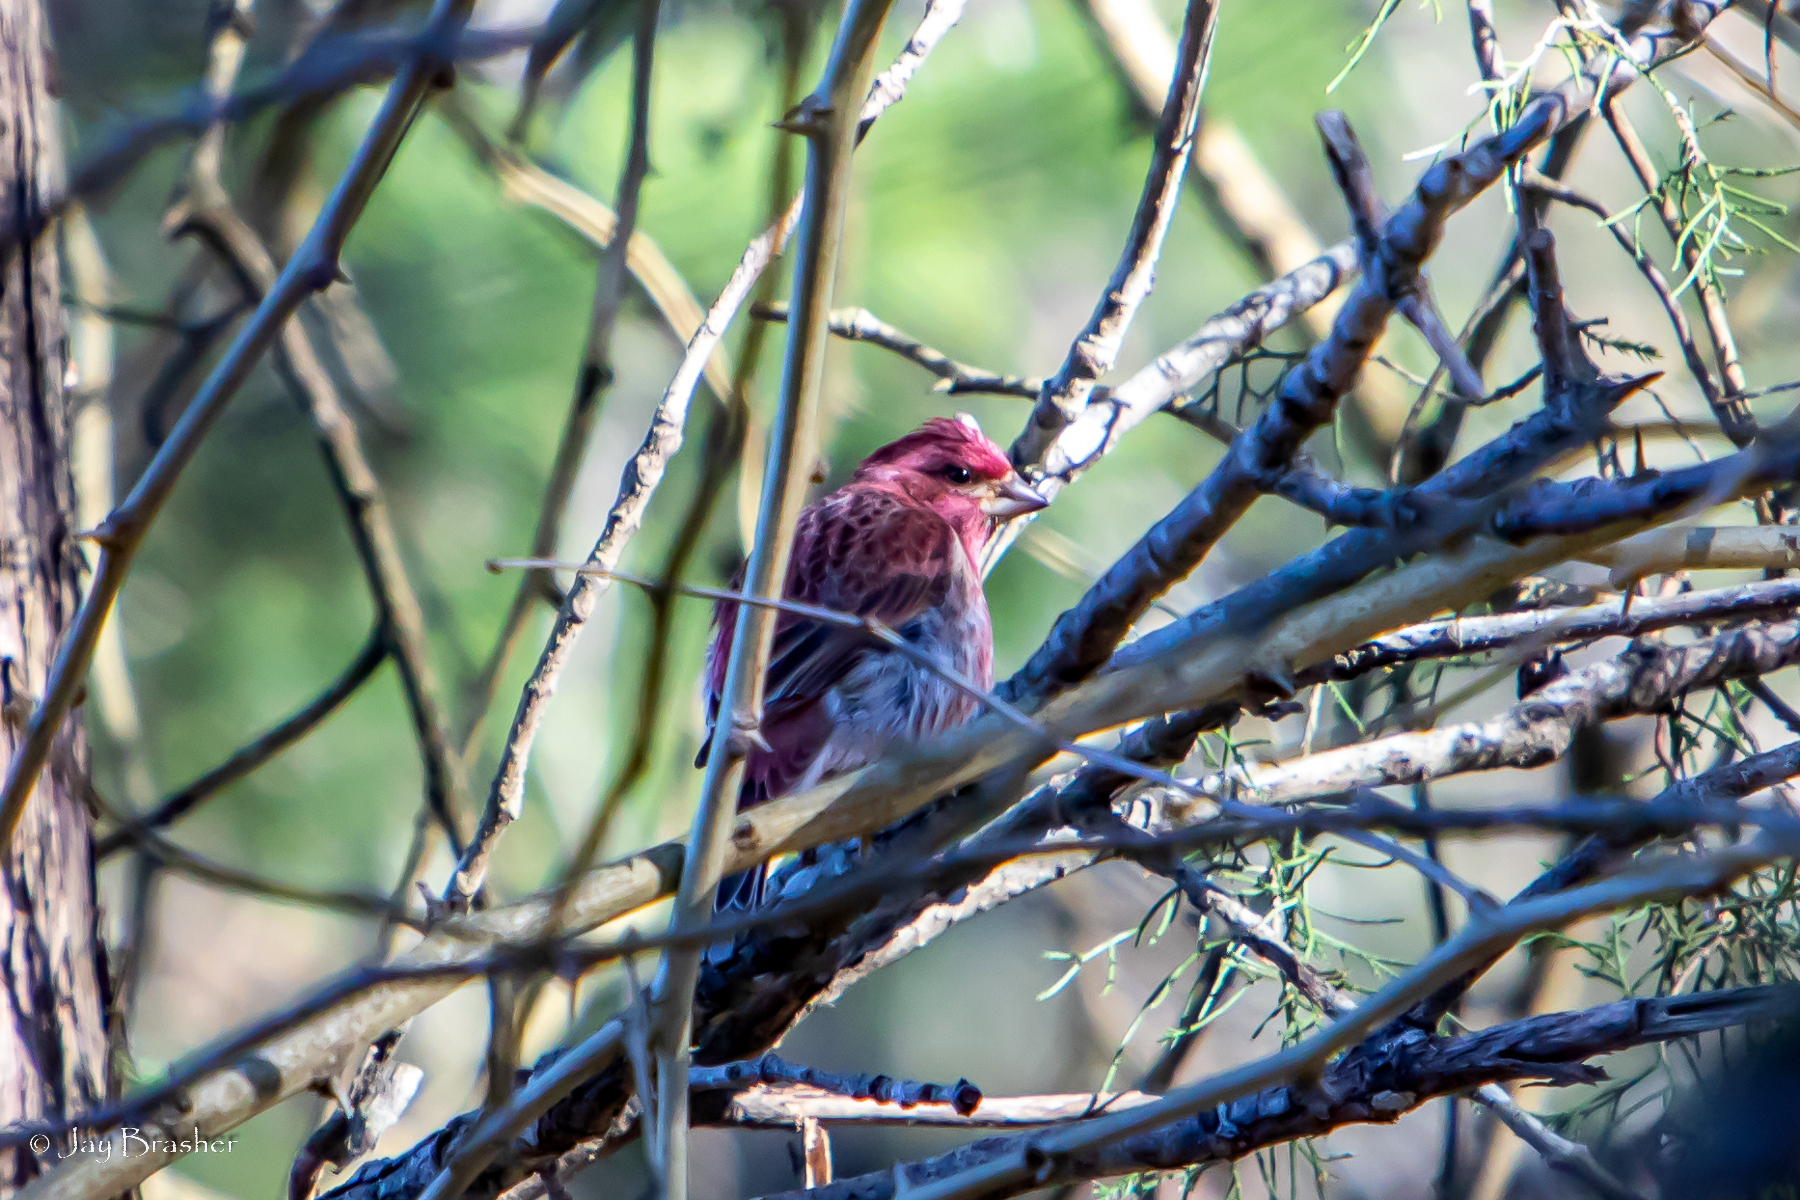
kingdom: Animalia
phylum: Chordata
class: Aves
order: Passeriformes
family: Fringillidae
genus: Haemorhous
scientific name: Haemorhous purpureus
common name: Purple finch
